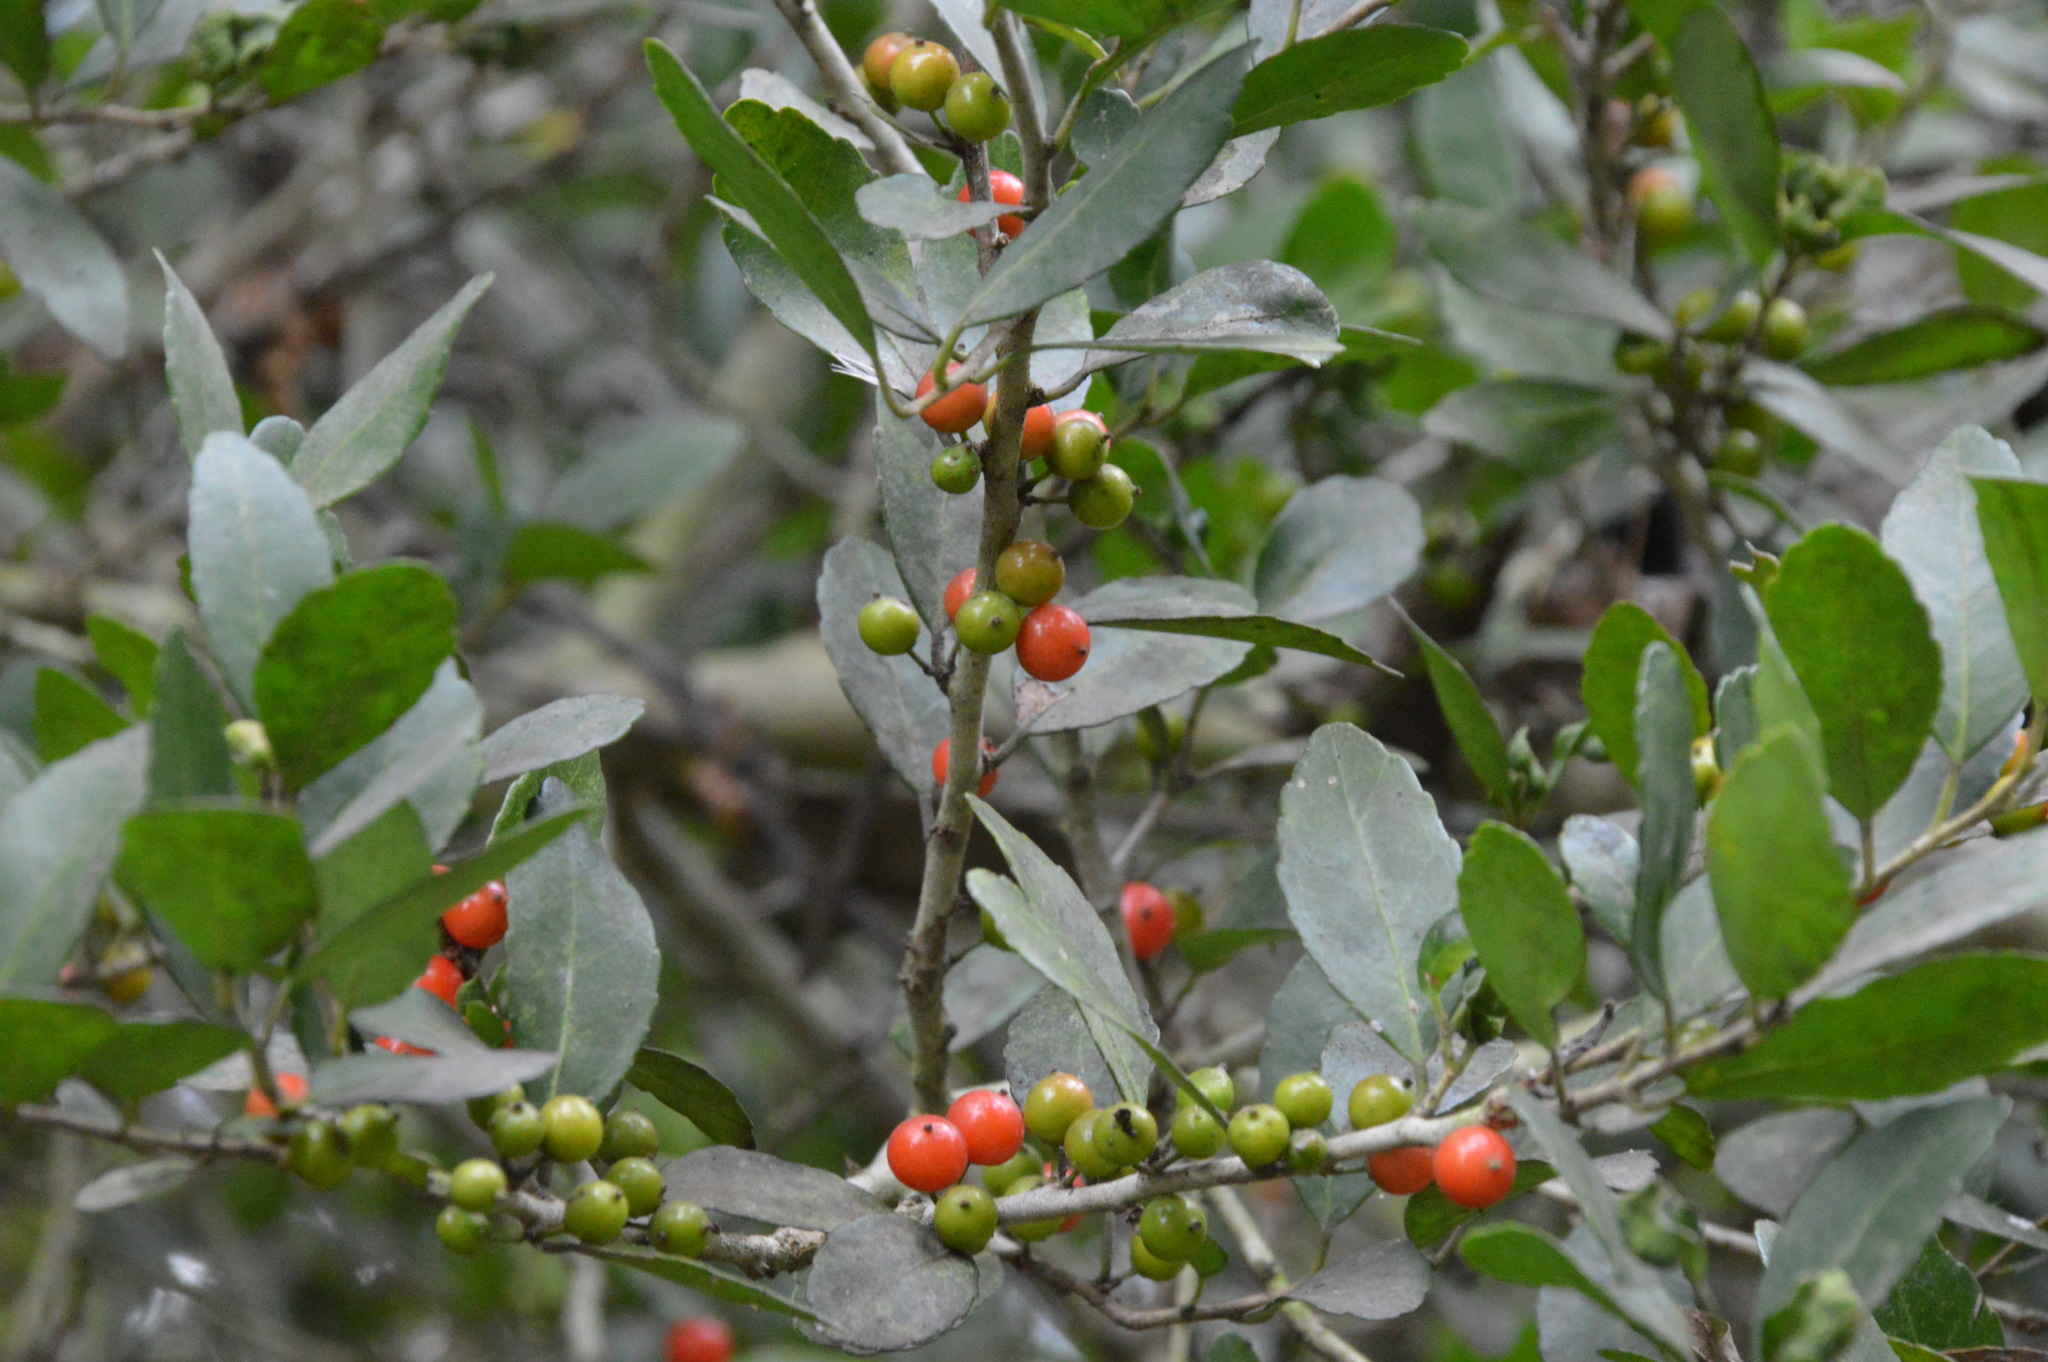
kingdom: Plantae
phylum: Tracheophyta
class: Magnoliopsida
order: Aquifoliales
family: Aquifoliaceae
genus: Ilex
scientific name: Ilex vomitoria
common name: Yaupon holly
